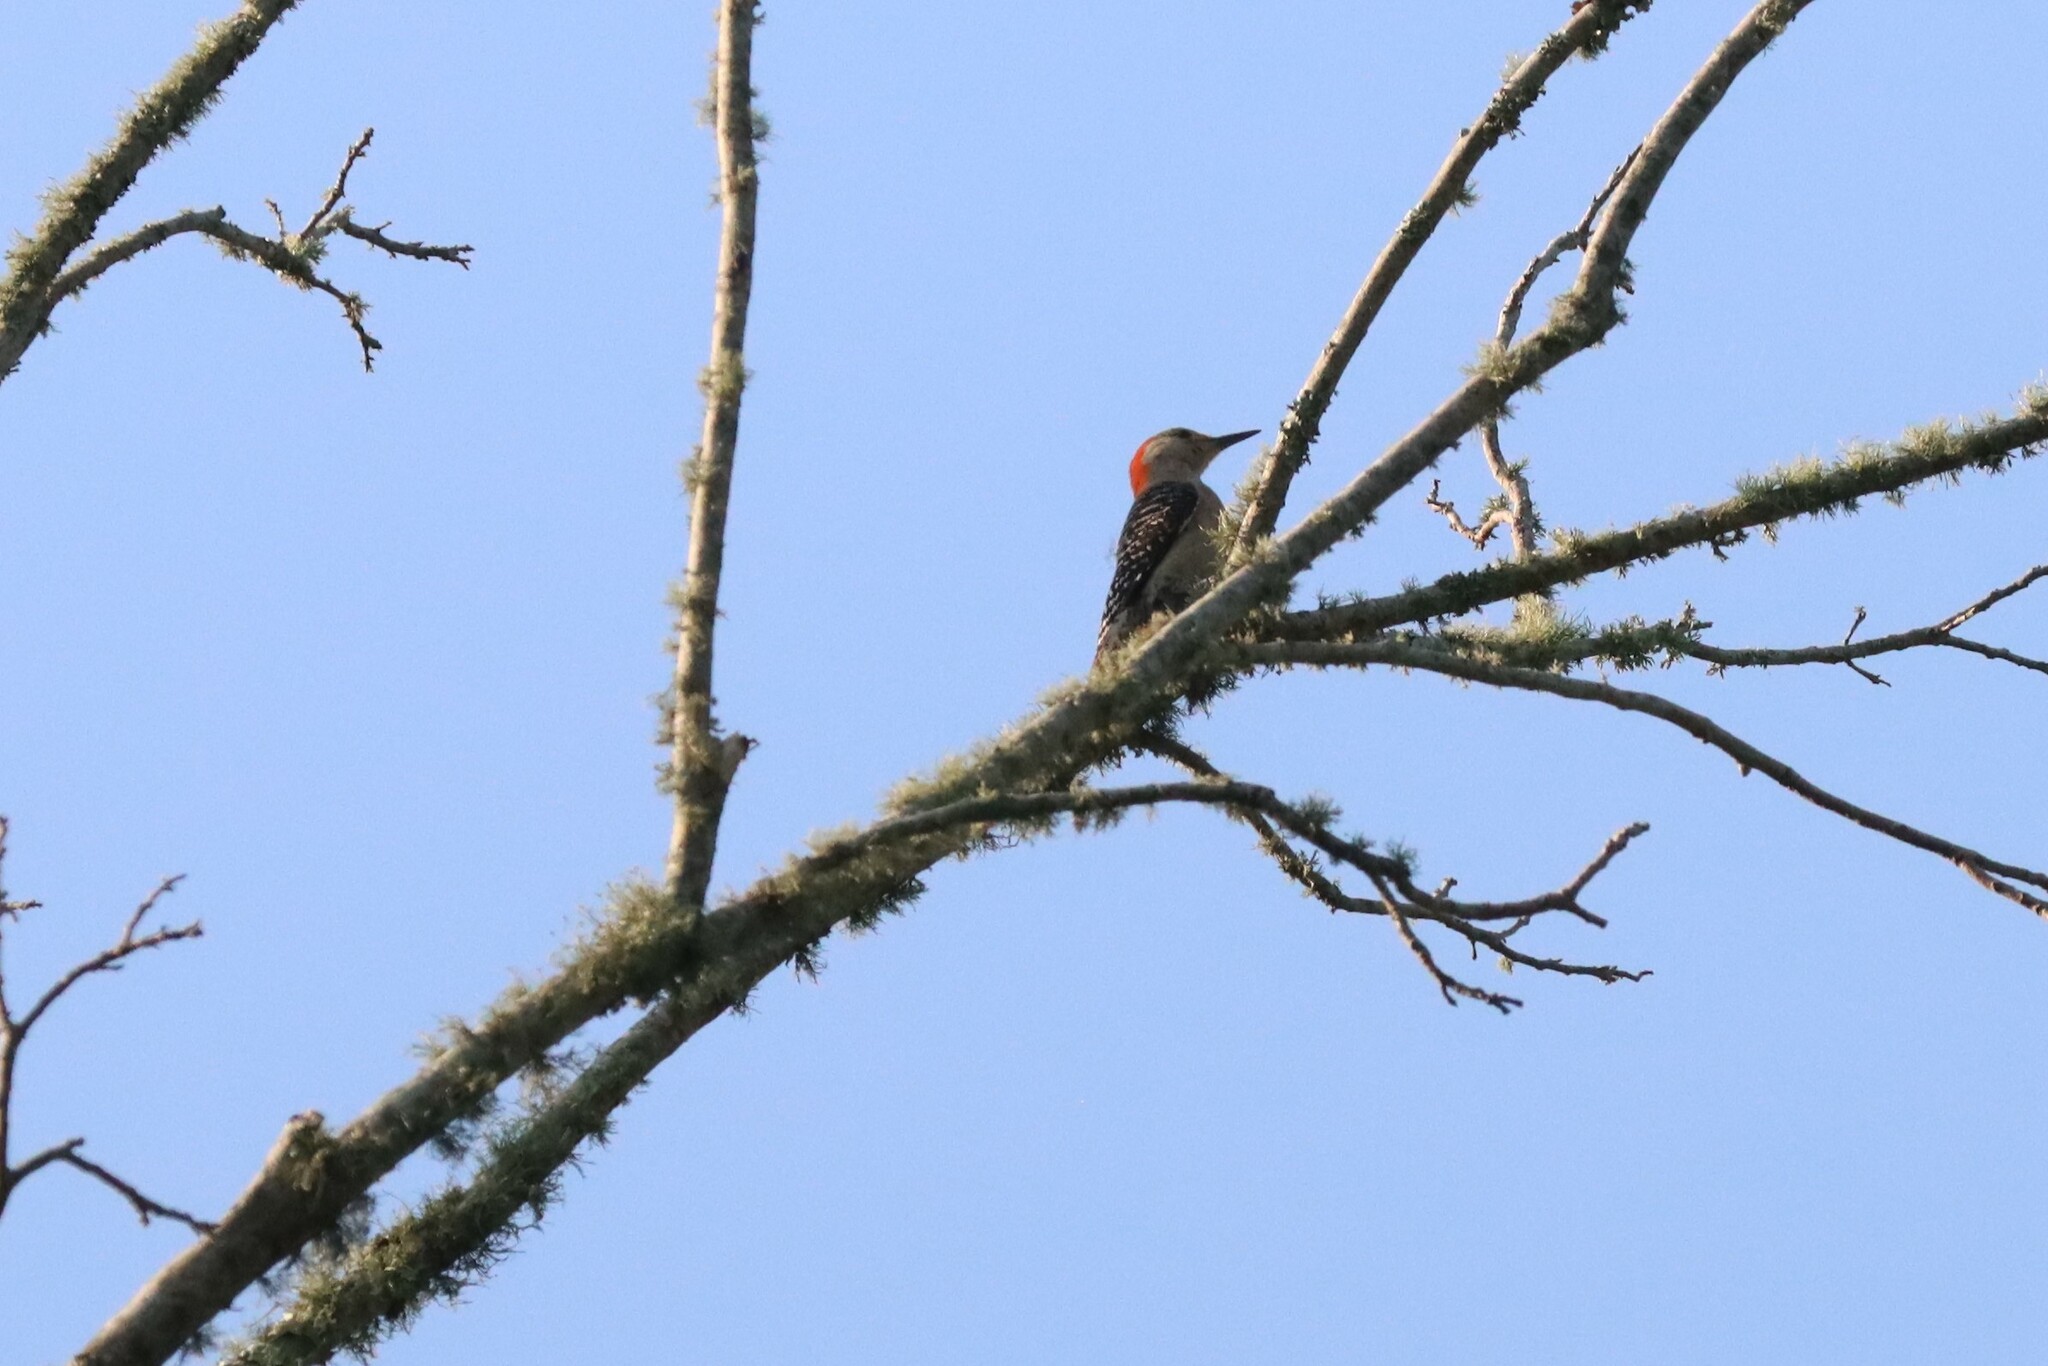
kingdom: Animalia
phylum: Chordata
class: Aves
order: Piciformes
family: Picidae
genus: Melanerpes
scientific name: Melanerpes carolinus
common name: Red-bellied woodpecker
